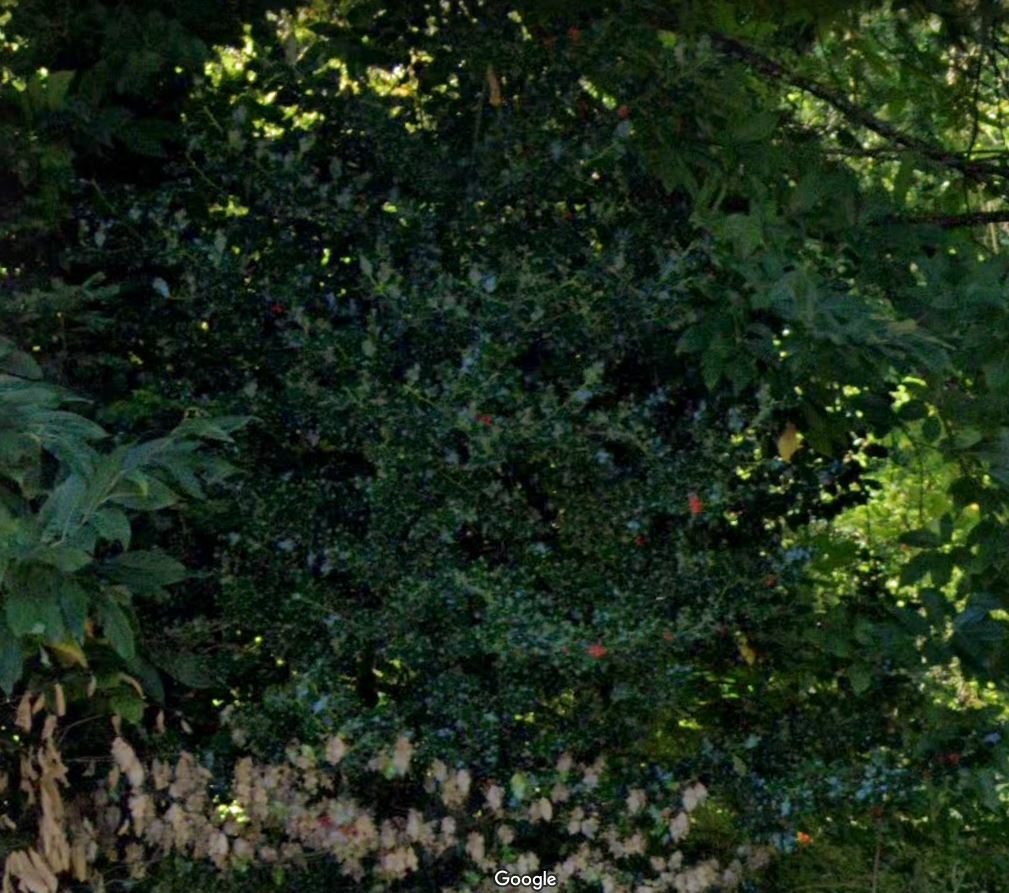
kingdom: Plantae
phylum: Tracheophyta
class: Magnoliopsida
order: Aquifoliales
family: Aquifoliaceae
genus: Ilex
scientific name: Ilex aquifolium
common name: English holly
